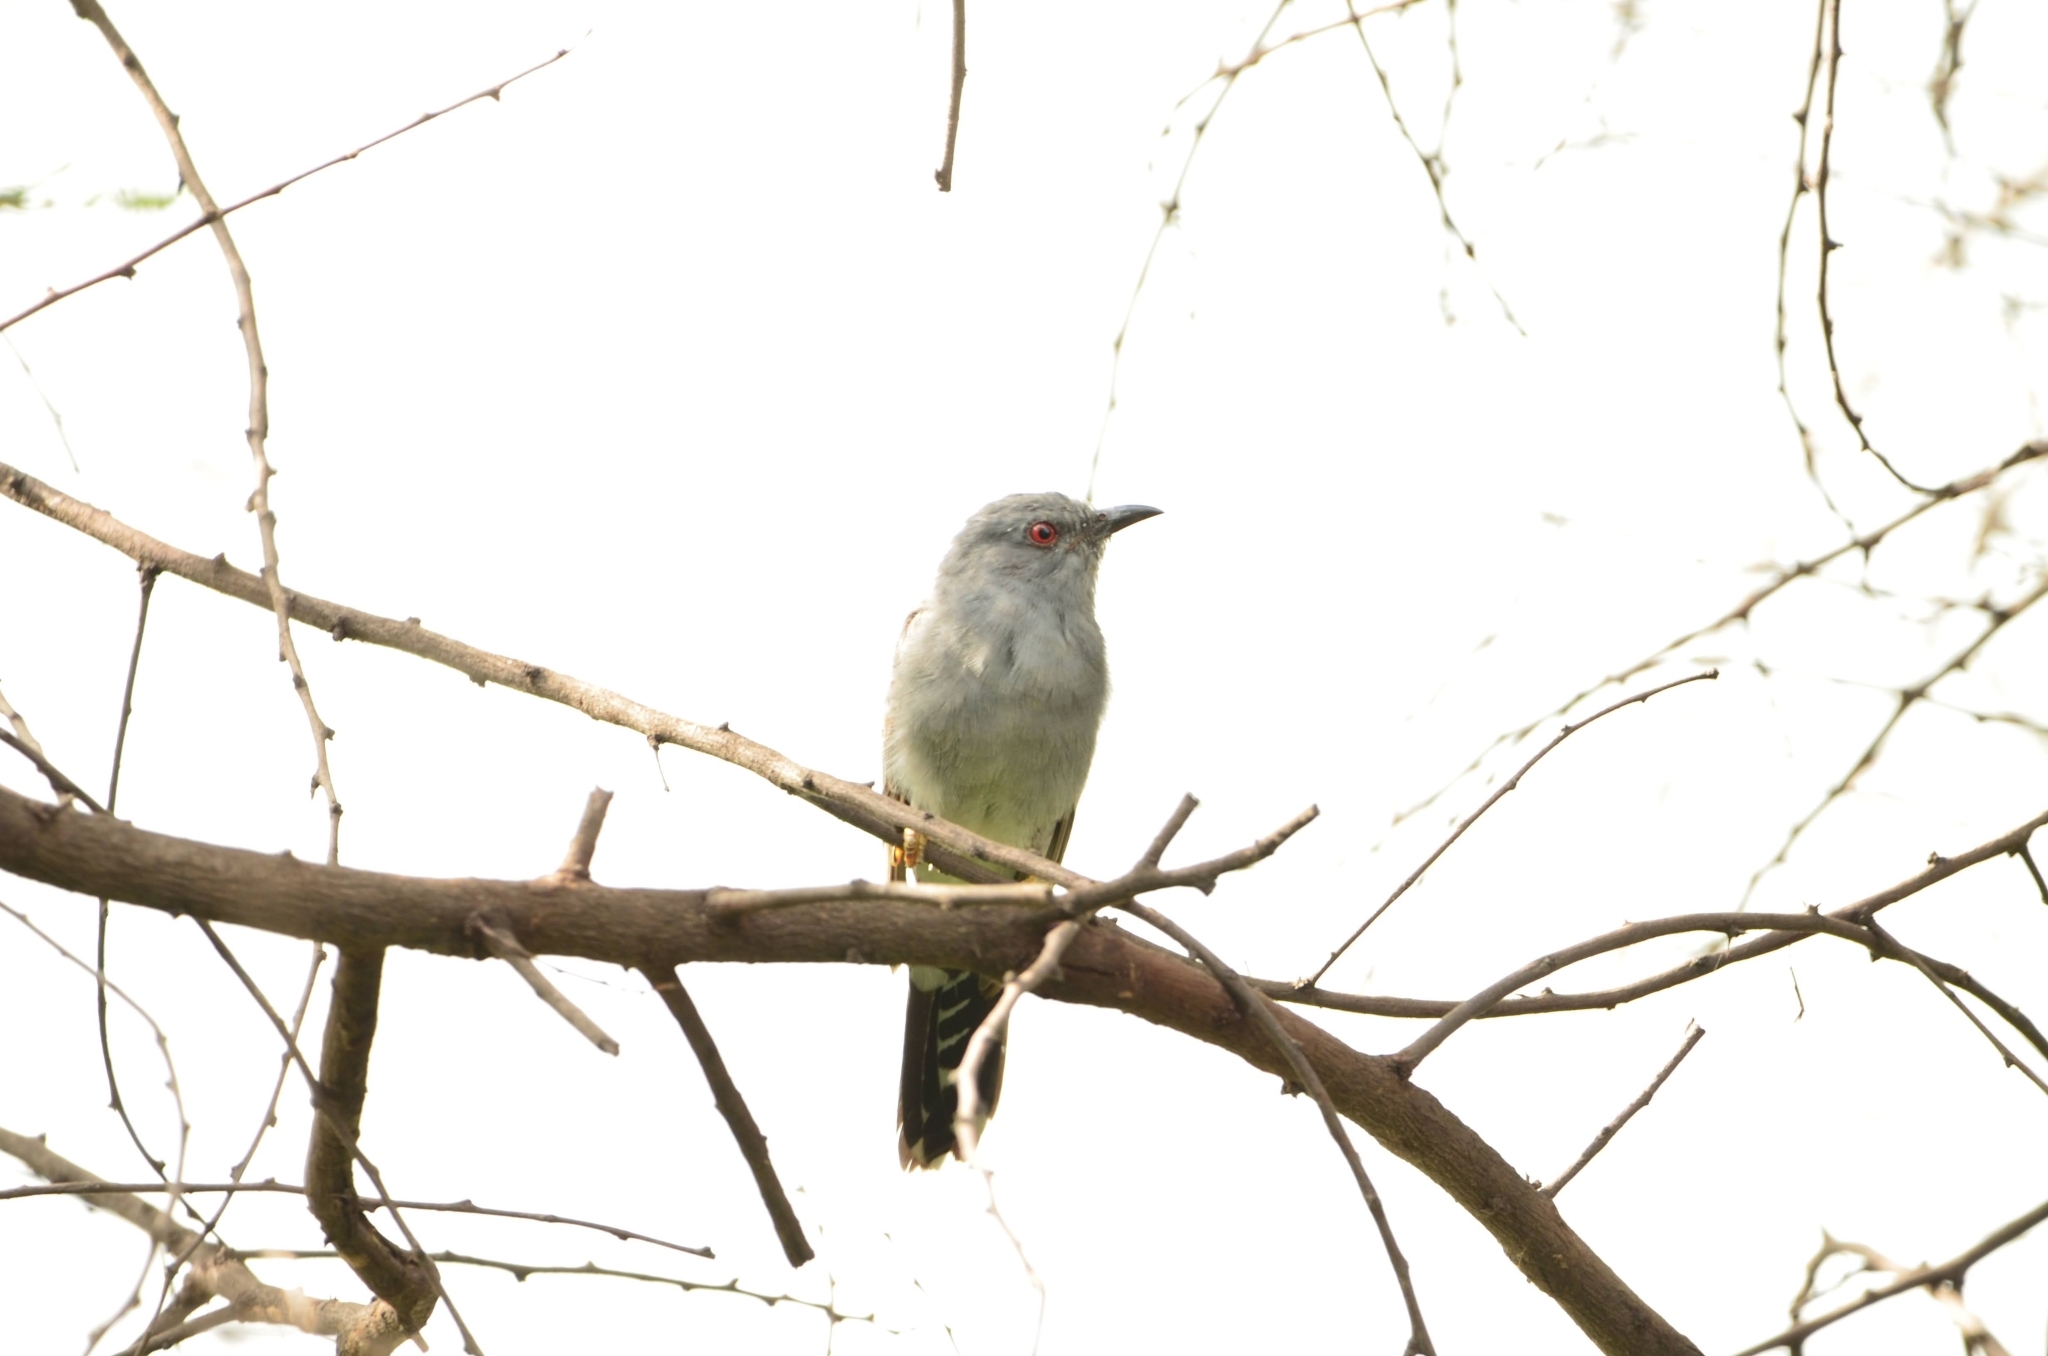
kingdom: Animalia
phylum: Chordata
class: Aves
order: Cuculiformes
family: Cuculidae
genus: Cacomantis
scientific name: Cacomantis passerinus
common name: Grey-bellied cuckoo
